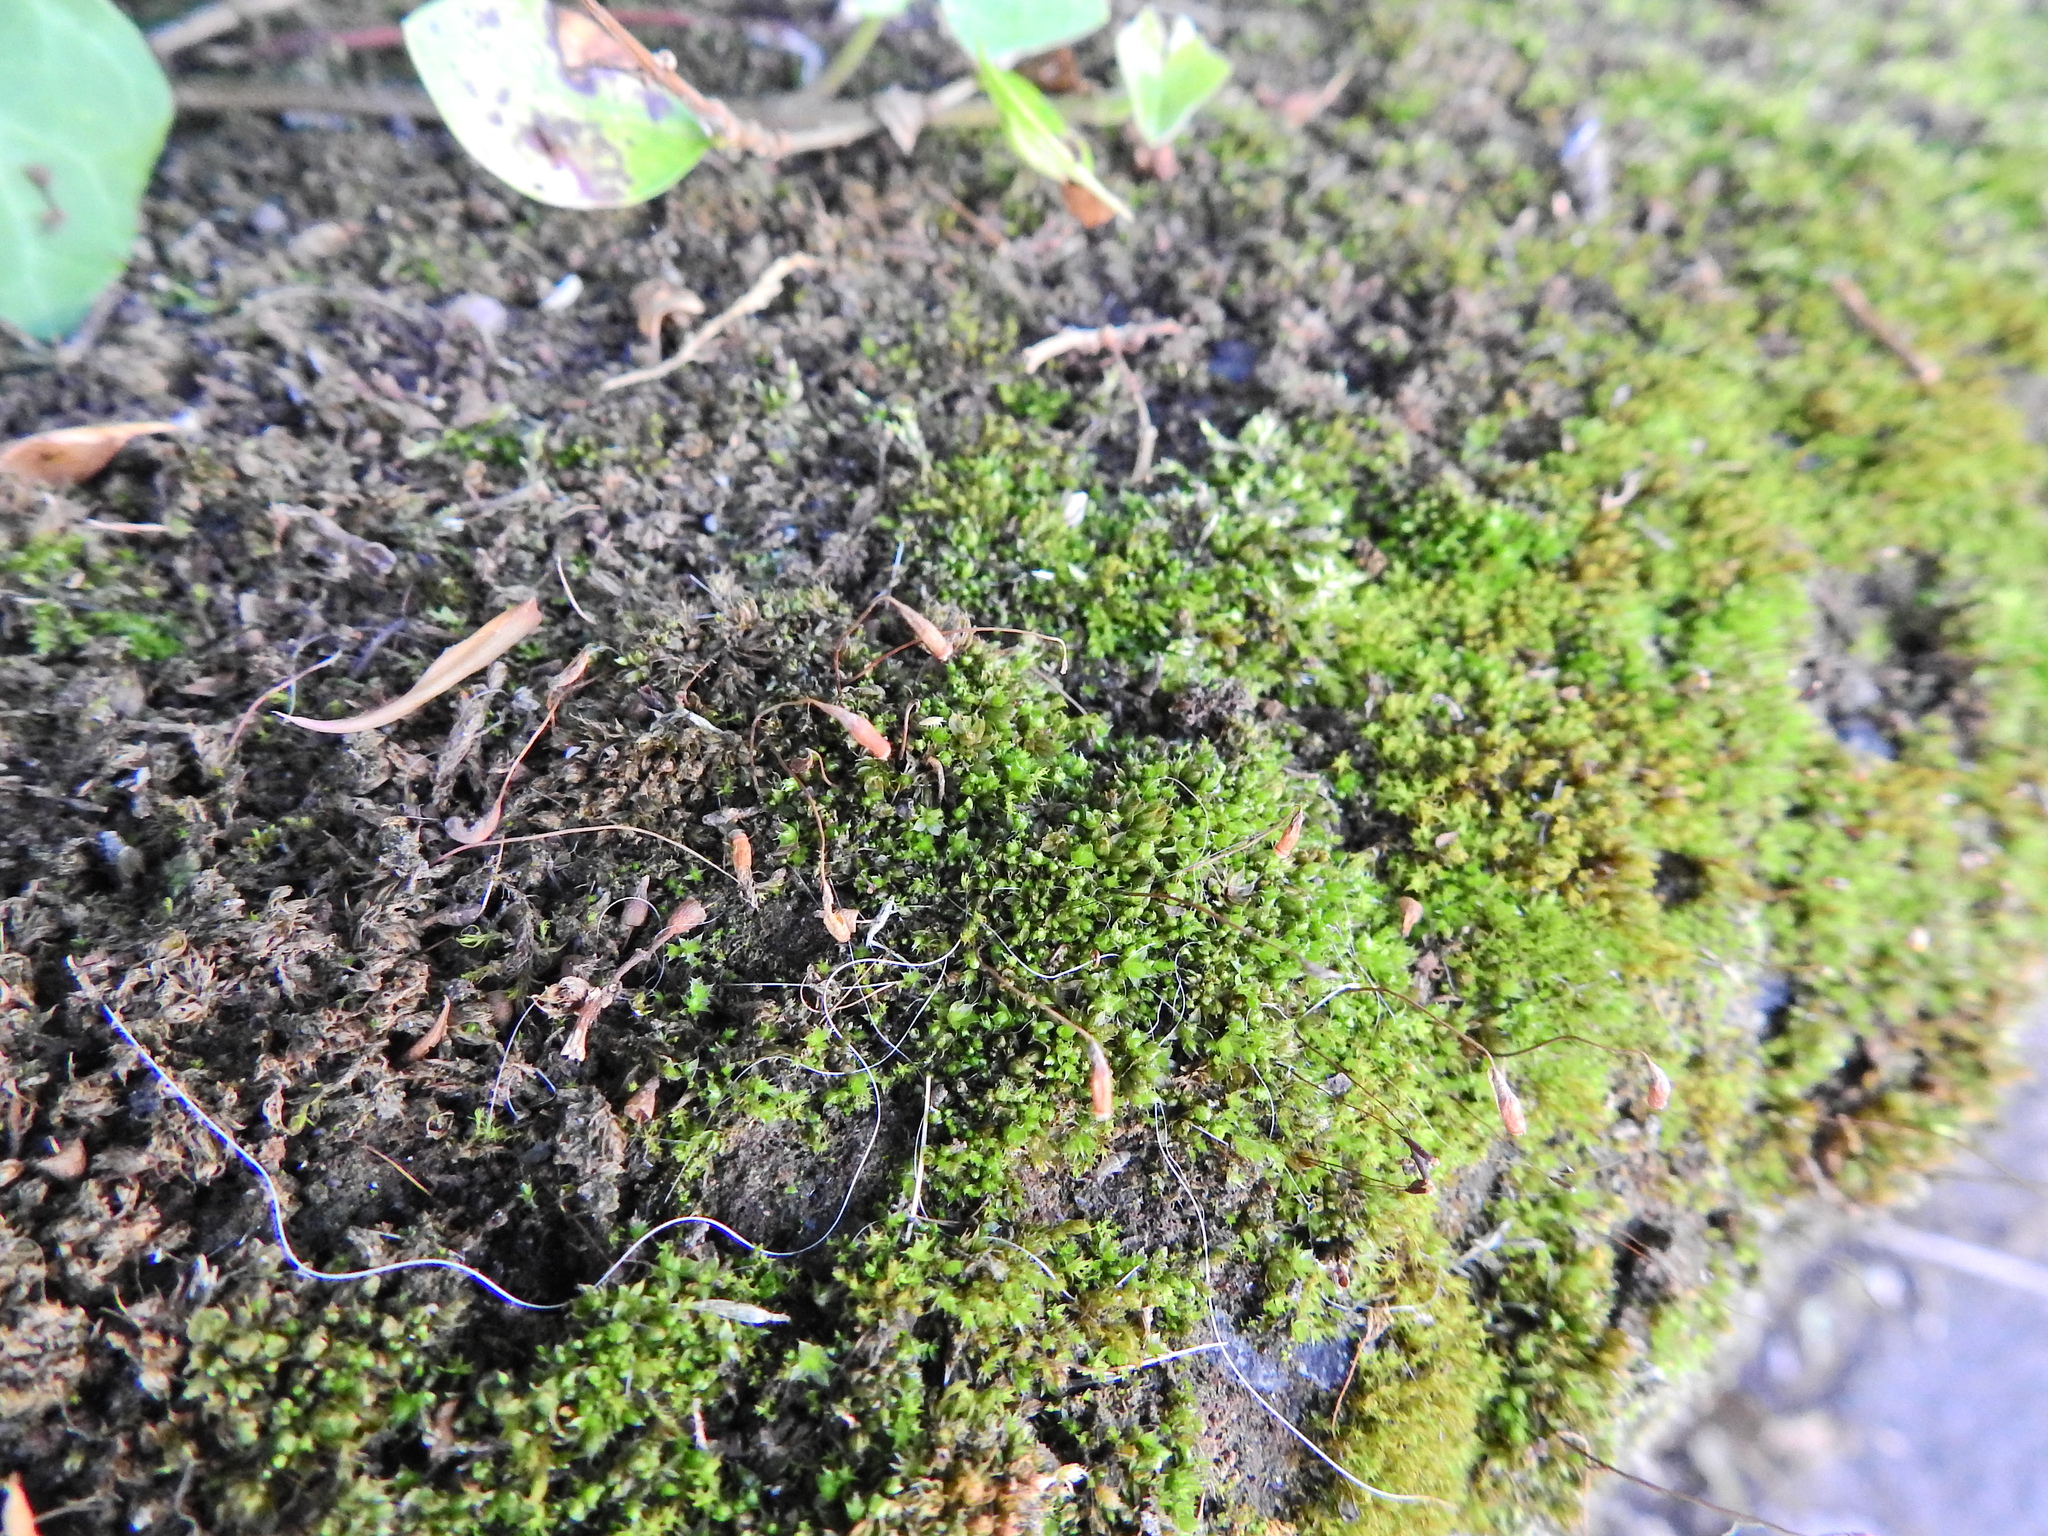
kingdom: Plantae
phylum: Bryophyta
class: Bryopsida
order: Bryales
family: Bryaceae
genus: Bryum
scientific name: Bryum argenteum
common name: Silver-moss
